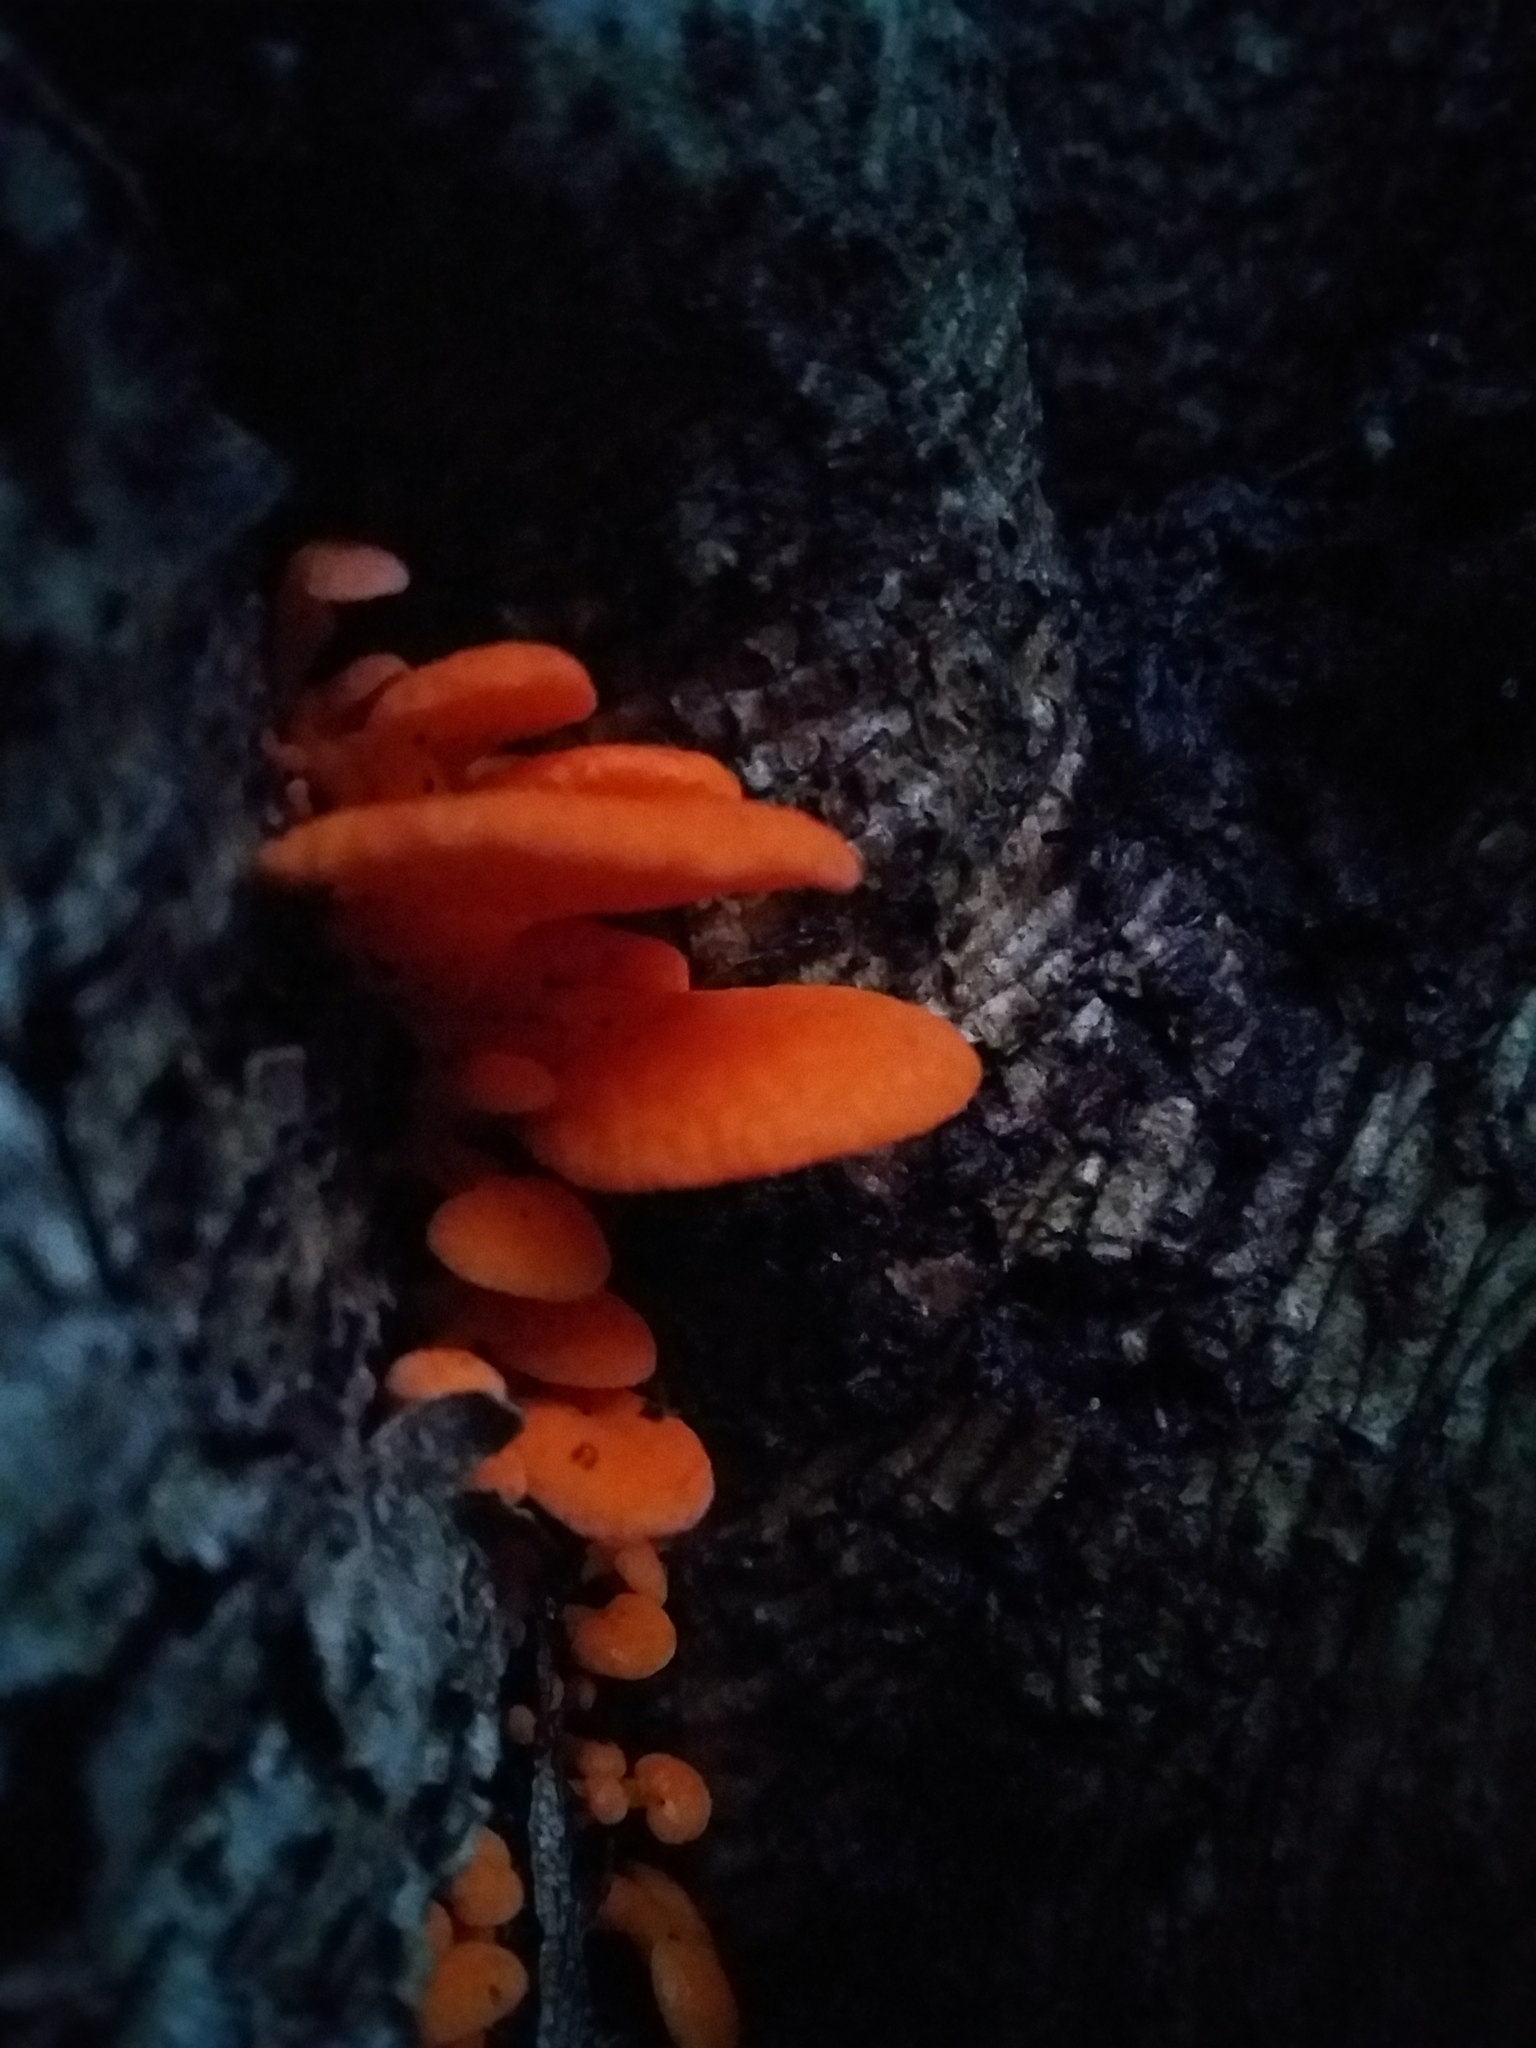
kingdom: Fungi
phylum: Basidiomycota
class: Agaricomycetes
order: Agaricales
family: Mycenaceae
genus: Favolaschia
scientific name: Favolaschia claudopus
